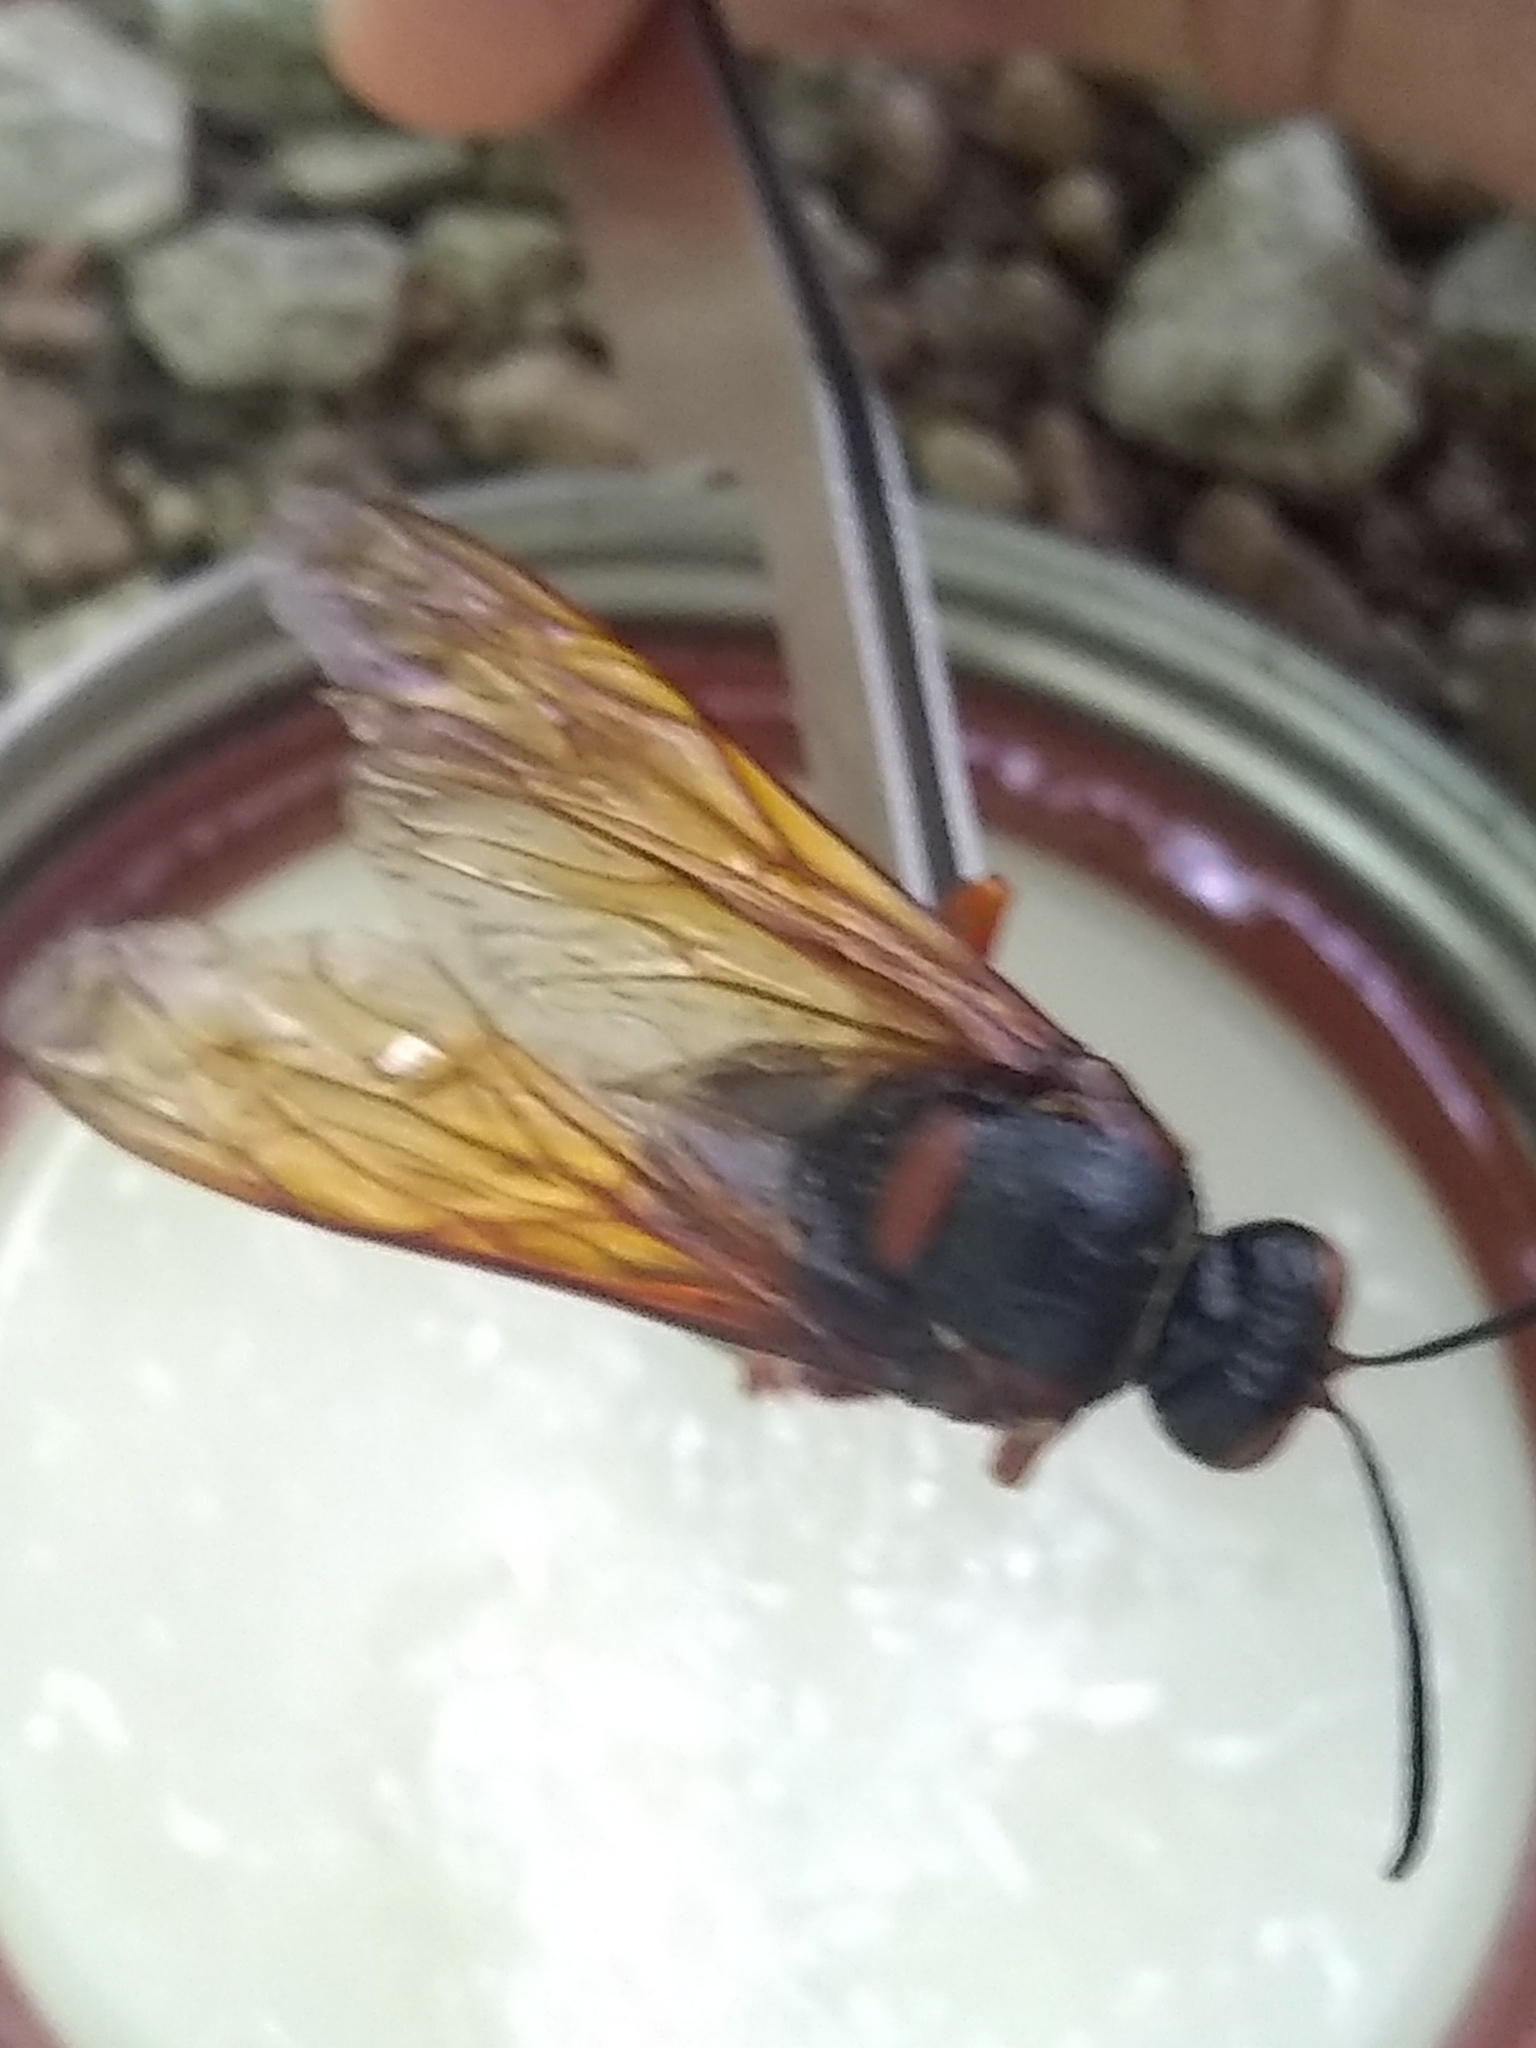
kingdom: Animalia
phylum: Arthropoda
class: Insecta
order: Hymenoptera
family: Crabronidae
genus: Sphecius
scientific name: Sphecius speciosus
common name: Cicada killer
